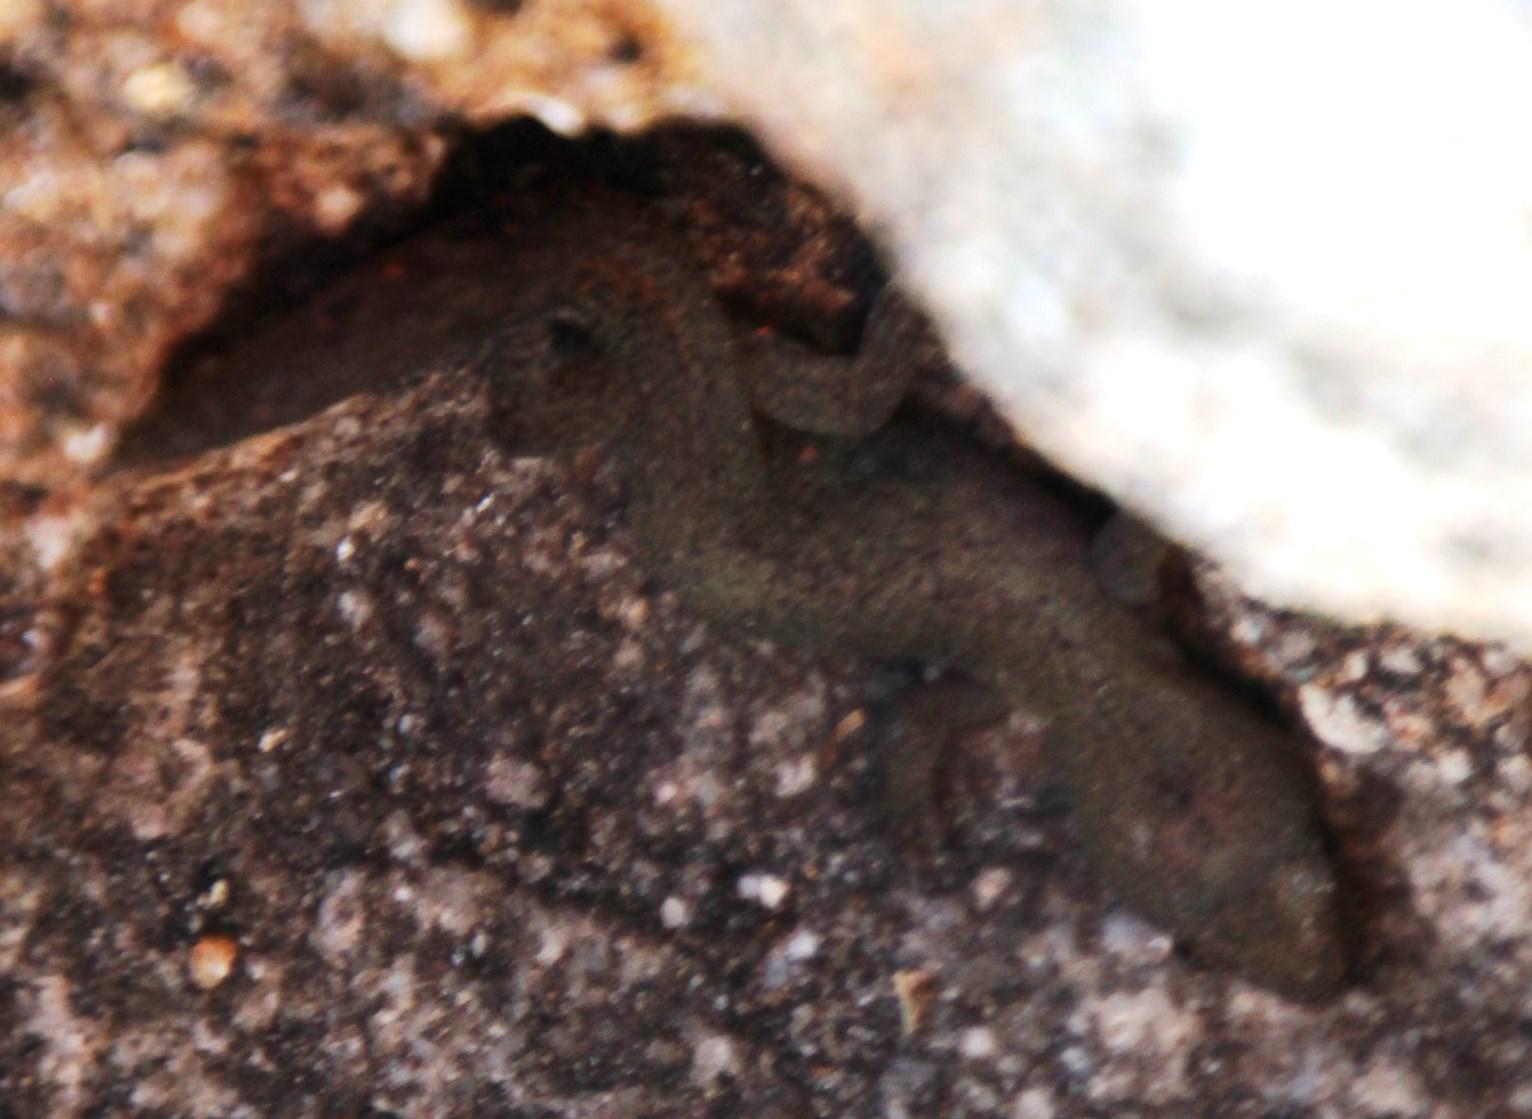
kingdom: Animalia
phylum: Chordata
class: Squamata
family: Gekkonidae
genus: Afrogecko
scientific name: Afrogecko porphyreus
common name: Marbled leaf-toed gecko
